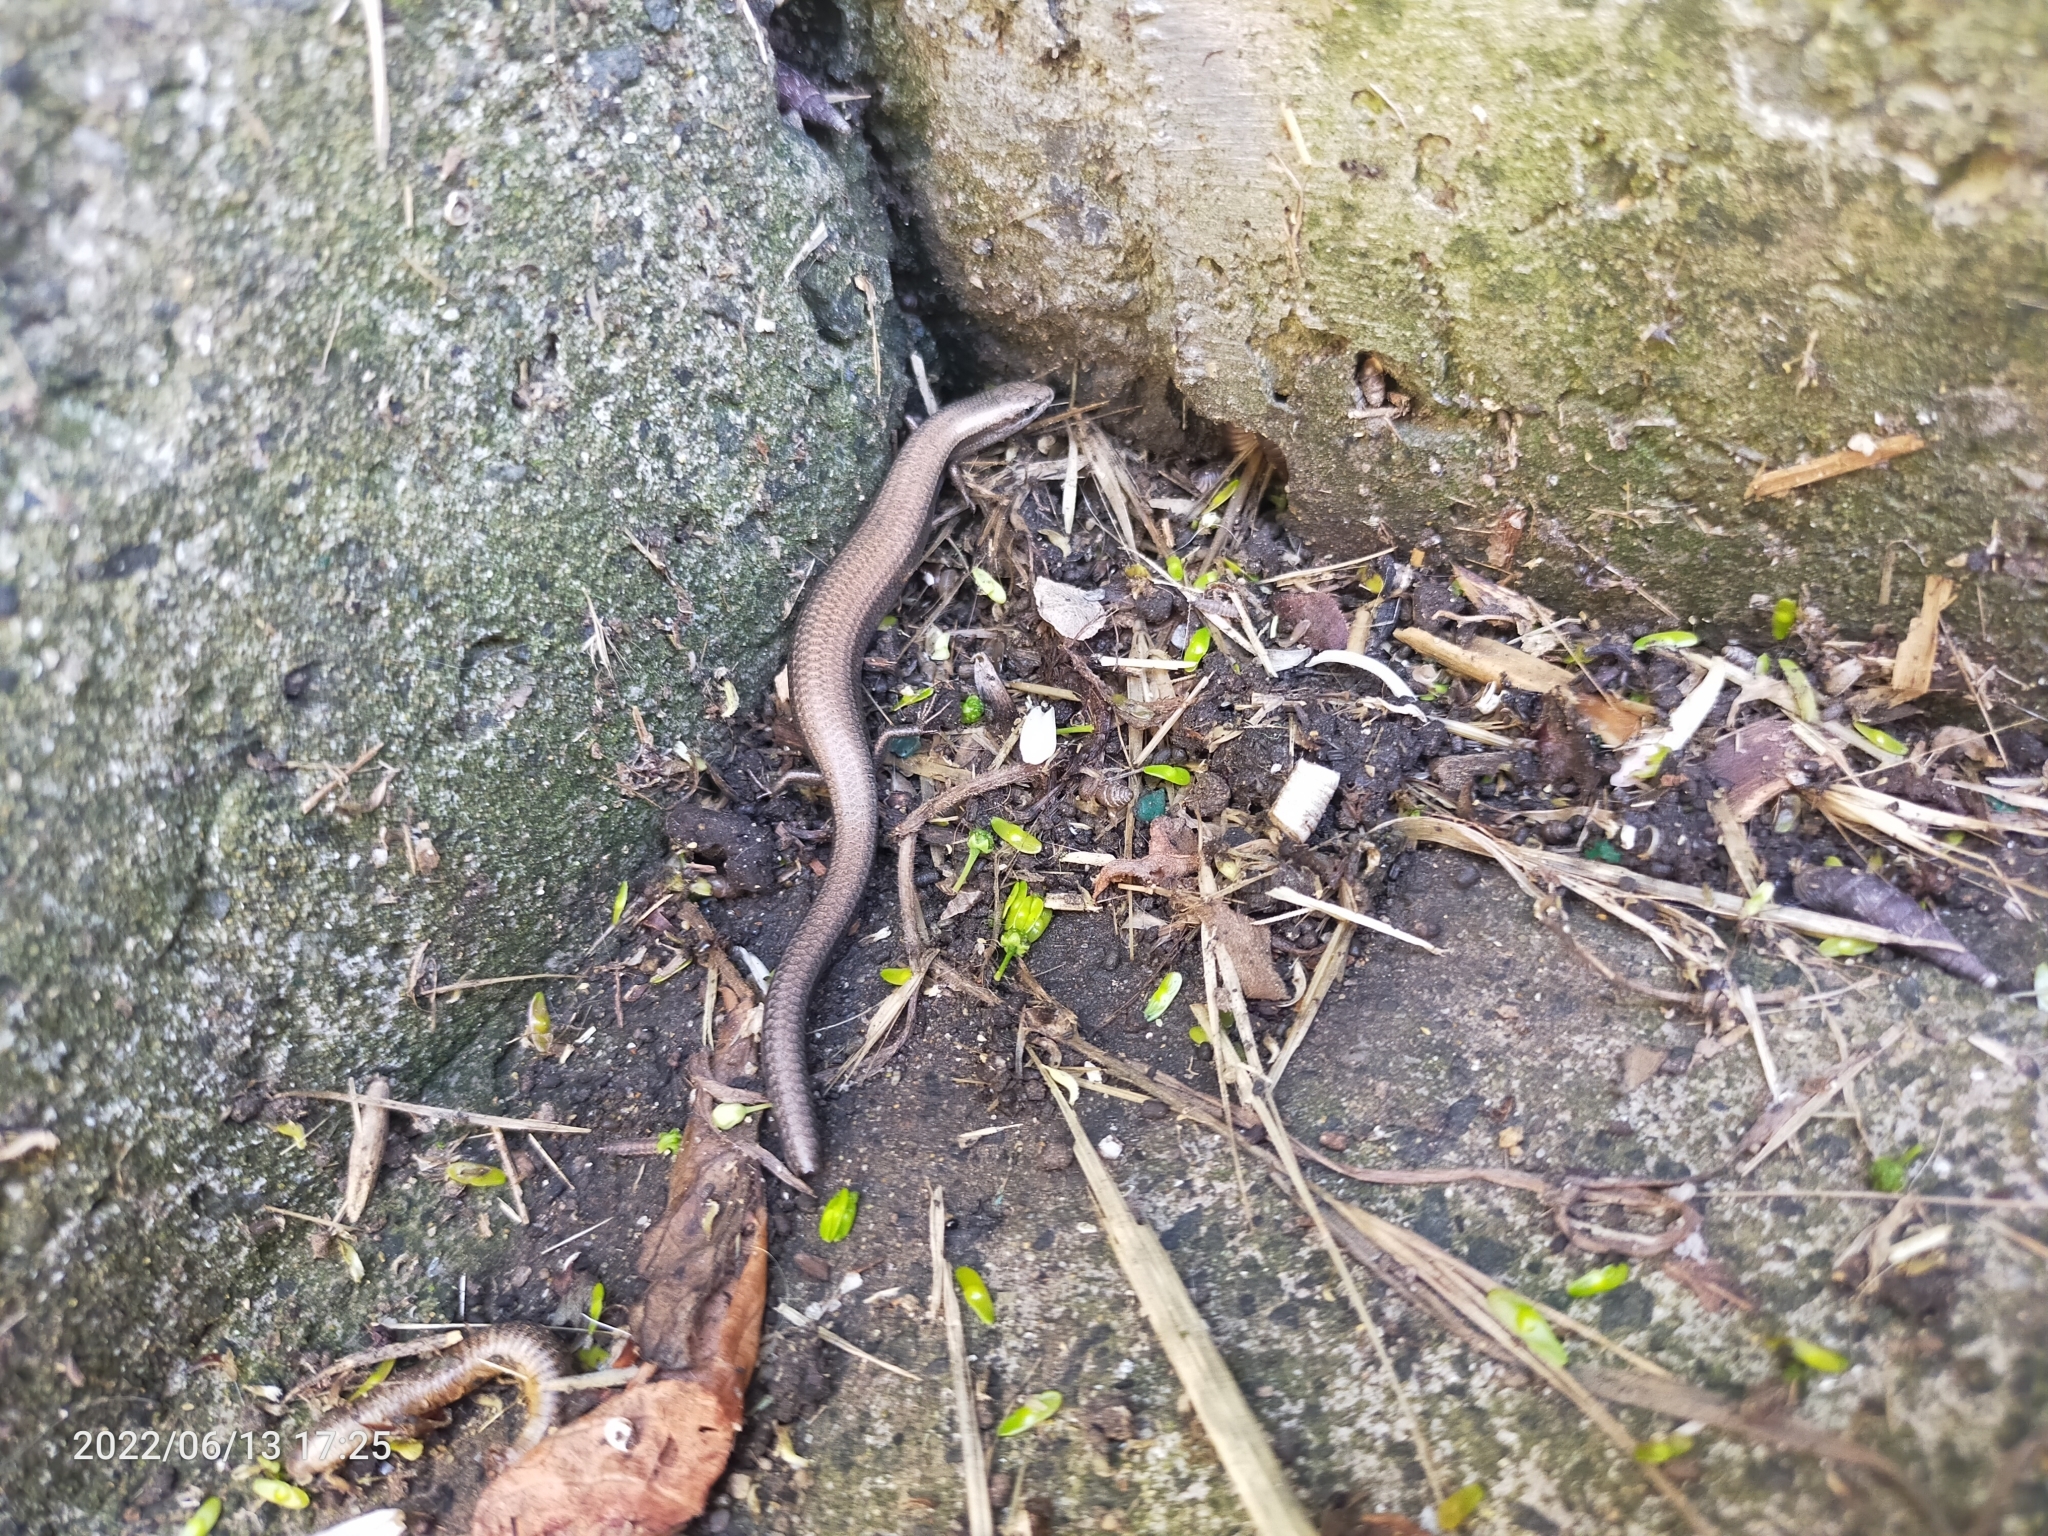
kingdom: Animalia
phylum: Chordata
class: Squamata
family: Scincidae
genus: Ablepharus
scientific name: Ablepharus kitaibelii
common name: Juniper skink
